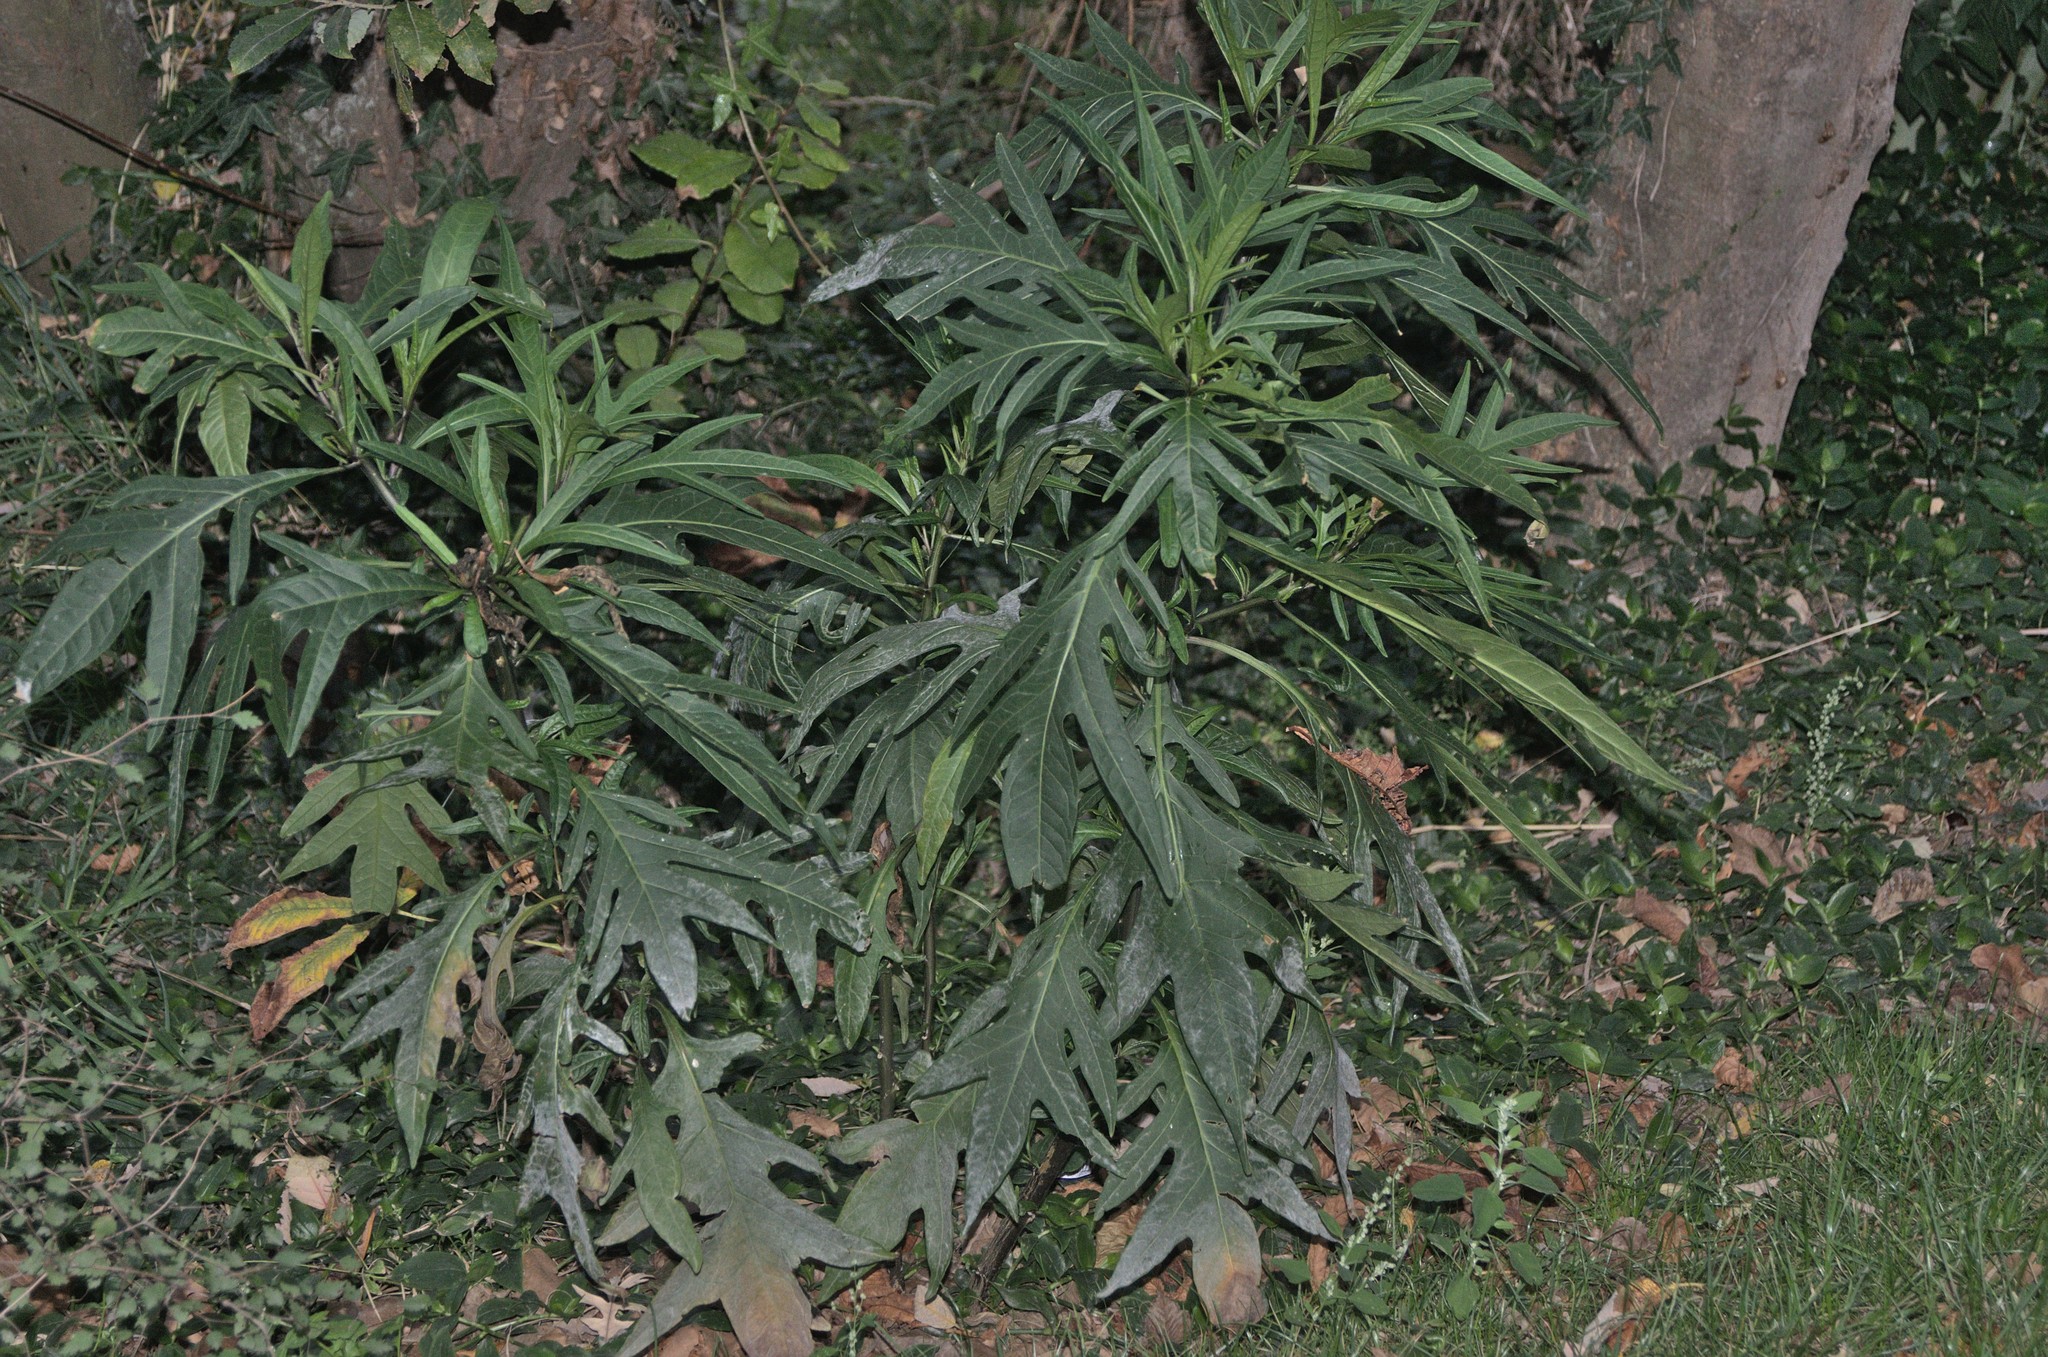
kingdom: Plantae
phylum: Tracheophyta
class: Magnoliopsida
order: Solanales
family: Solanaceae
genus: Solanum
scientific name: Solanum
